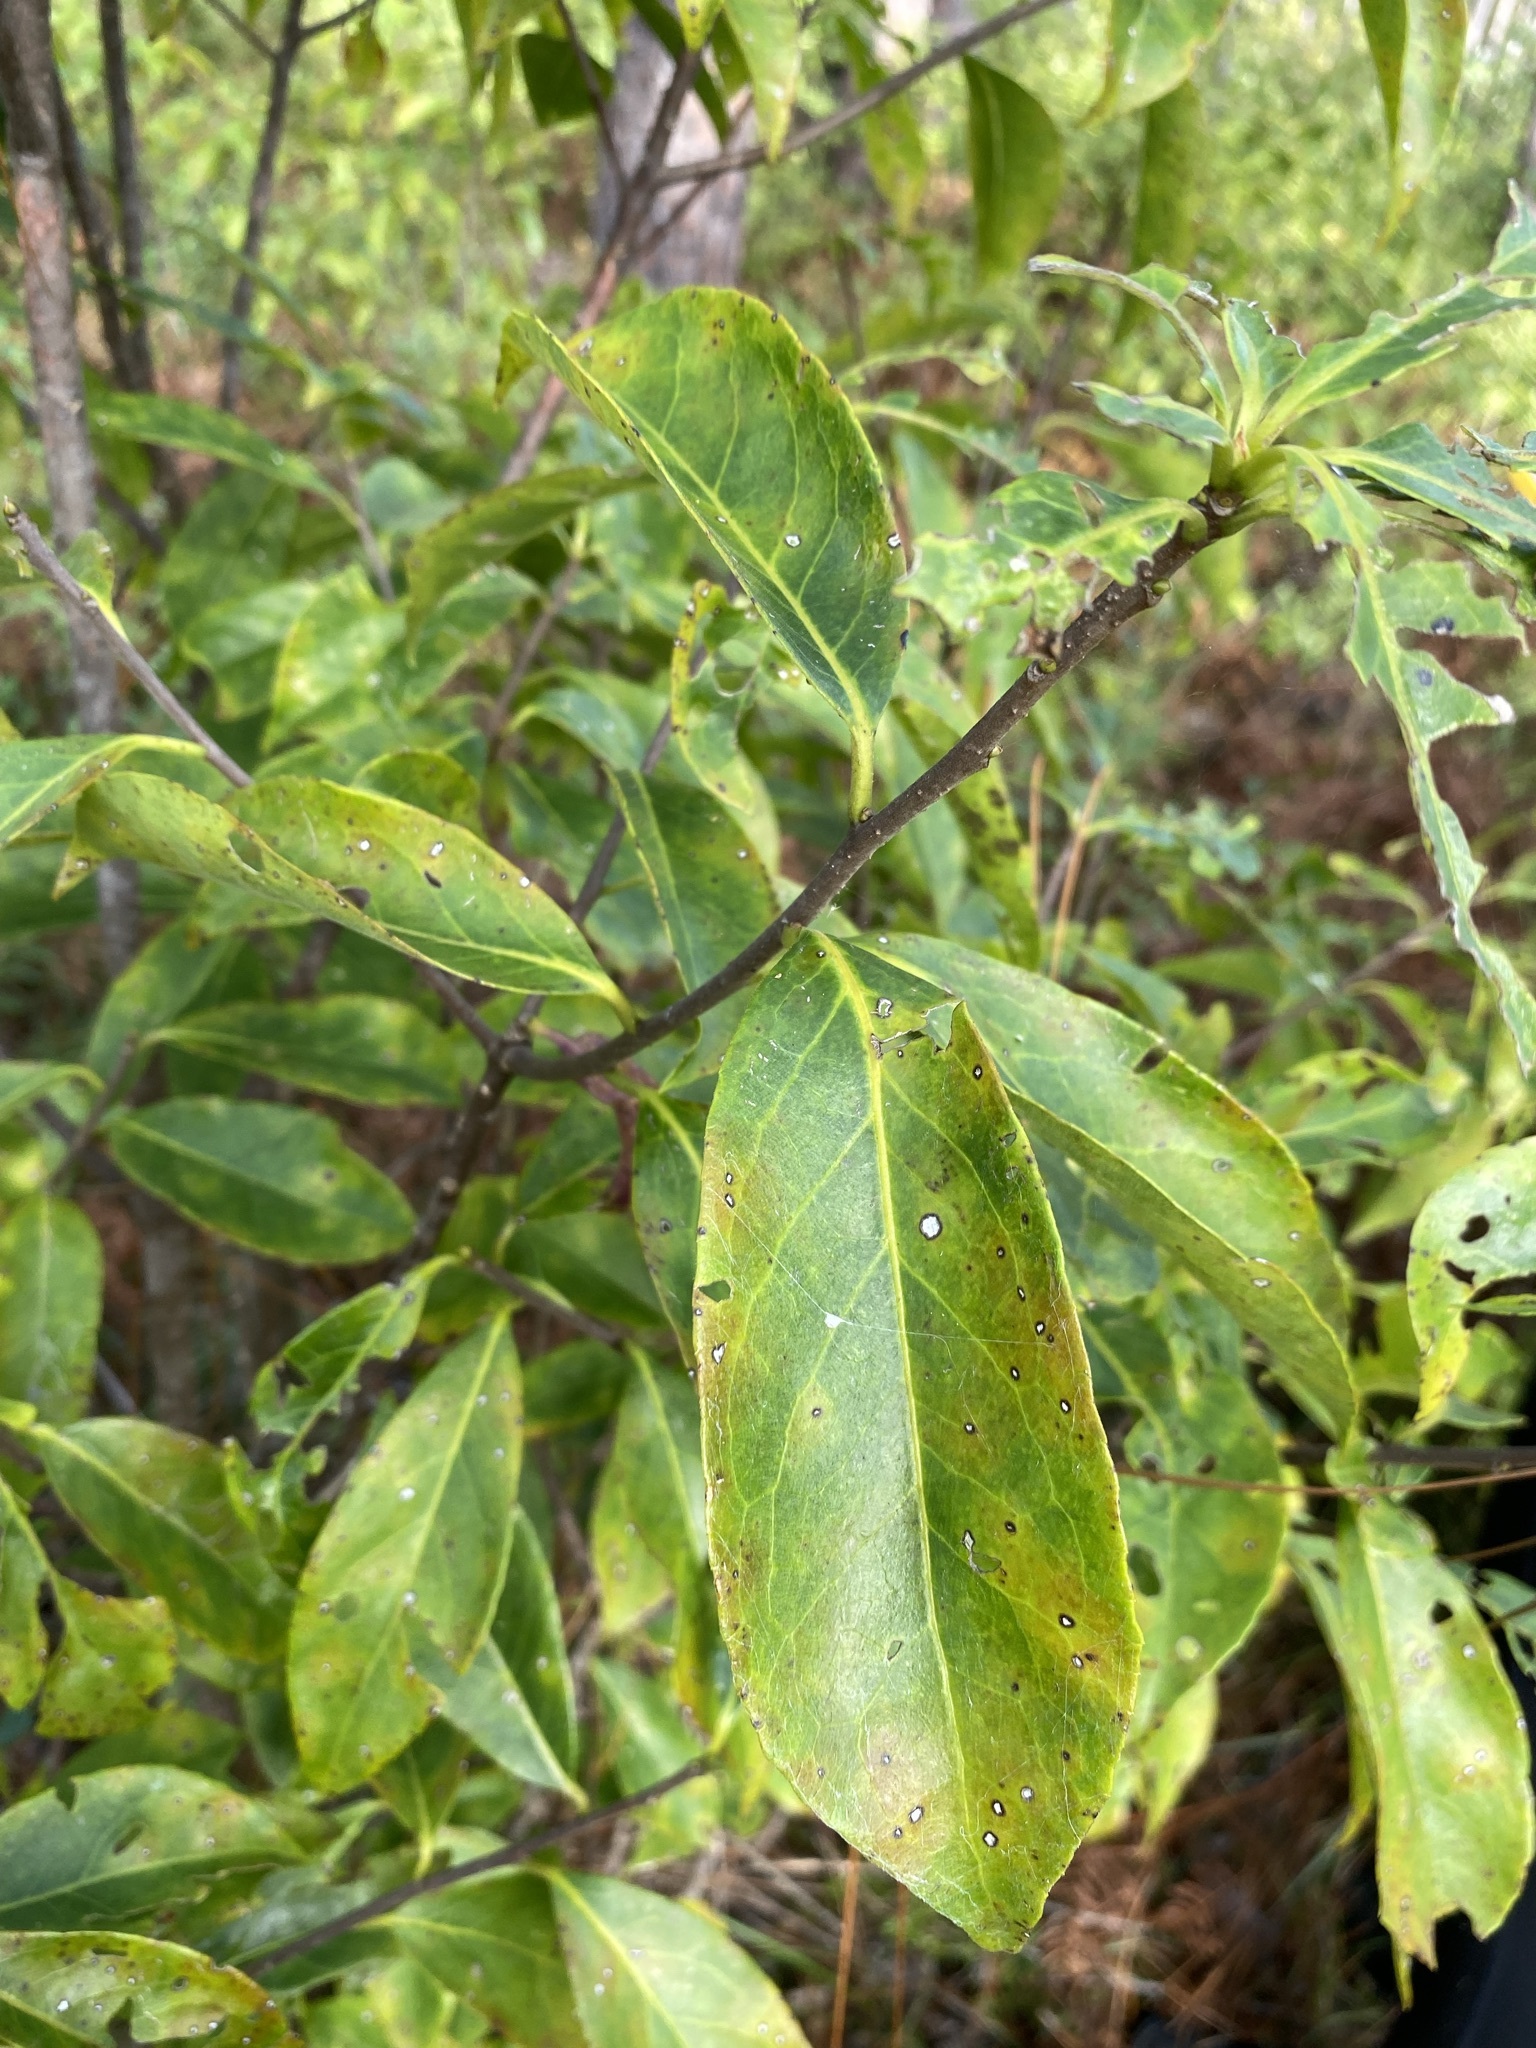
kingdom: Plantae
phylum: Tracheophyta
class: Magnoliopsida
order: Ericales
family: Symplocaceae
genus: Symplocos
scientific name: Symplocos tinctoria
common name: Horse-sugar
